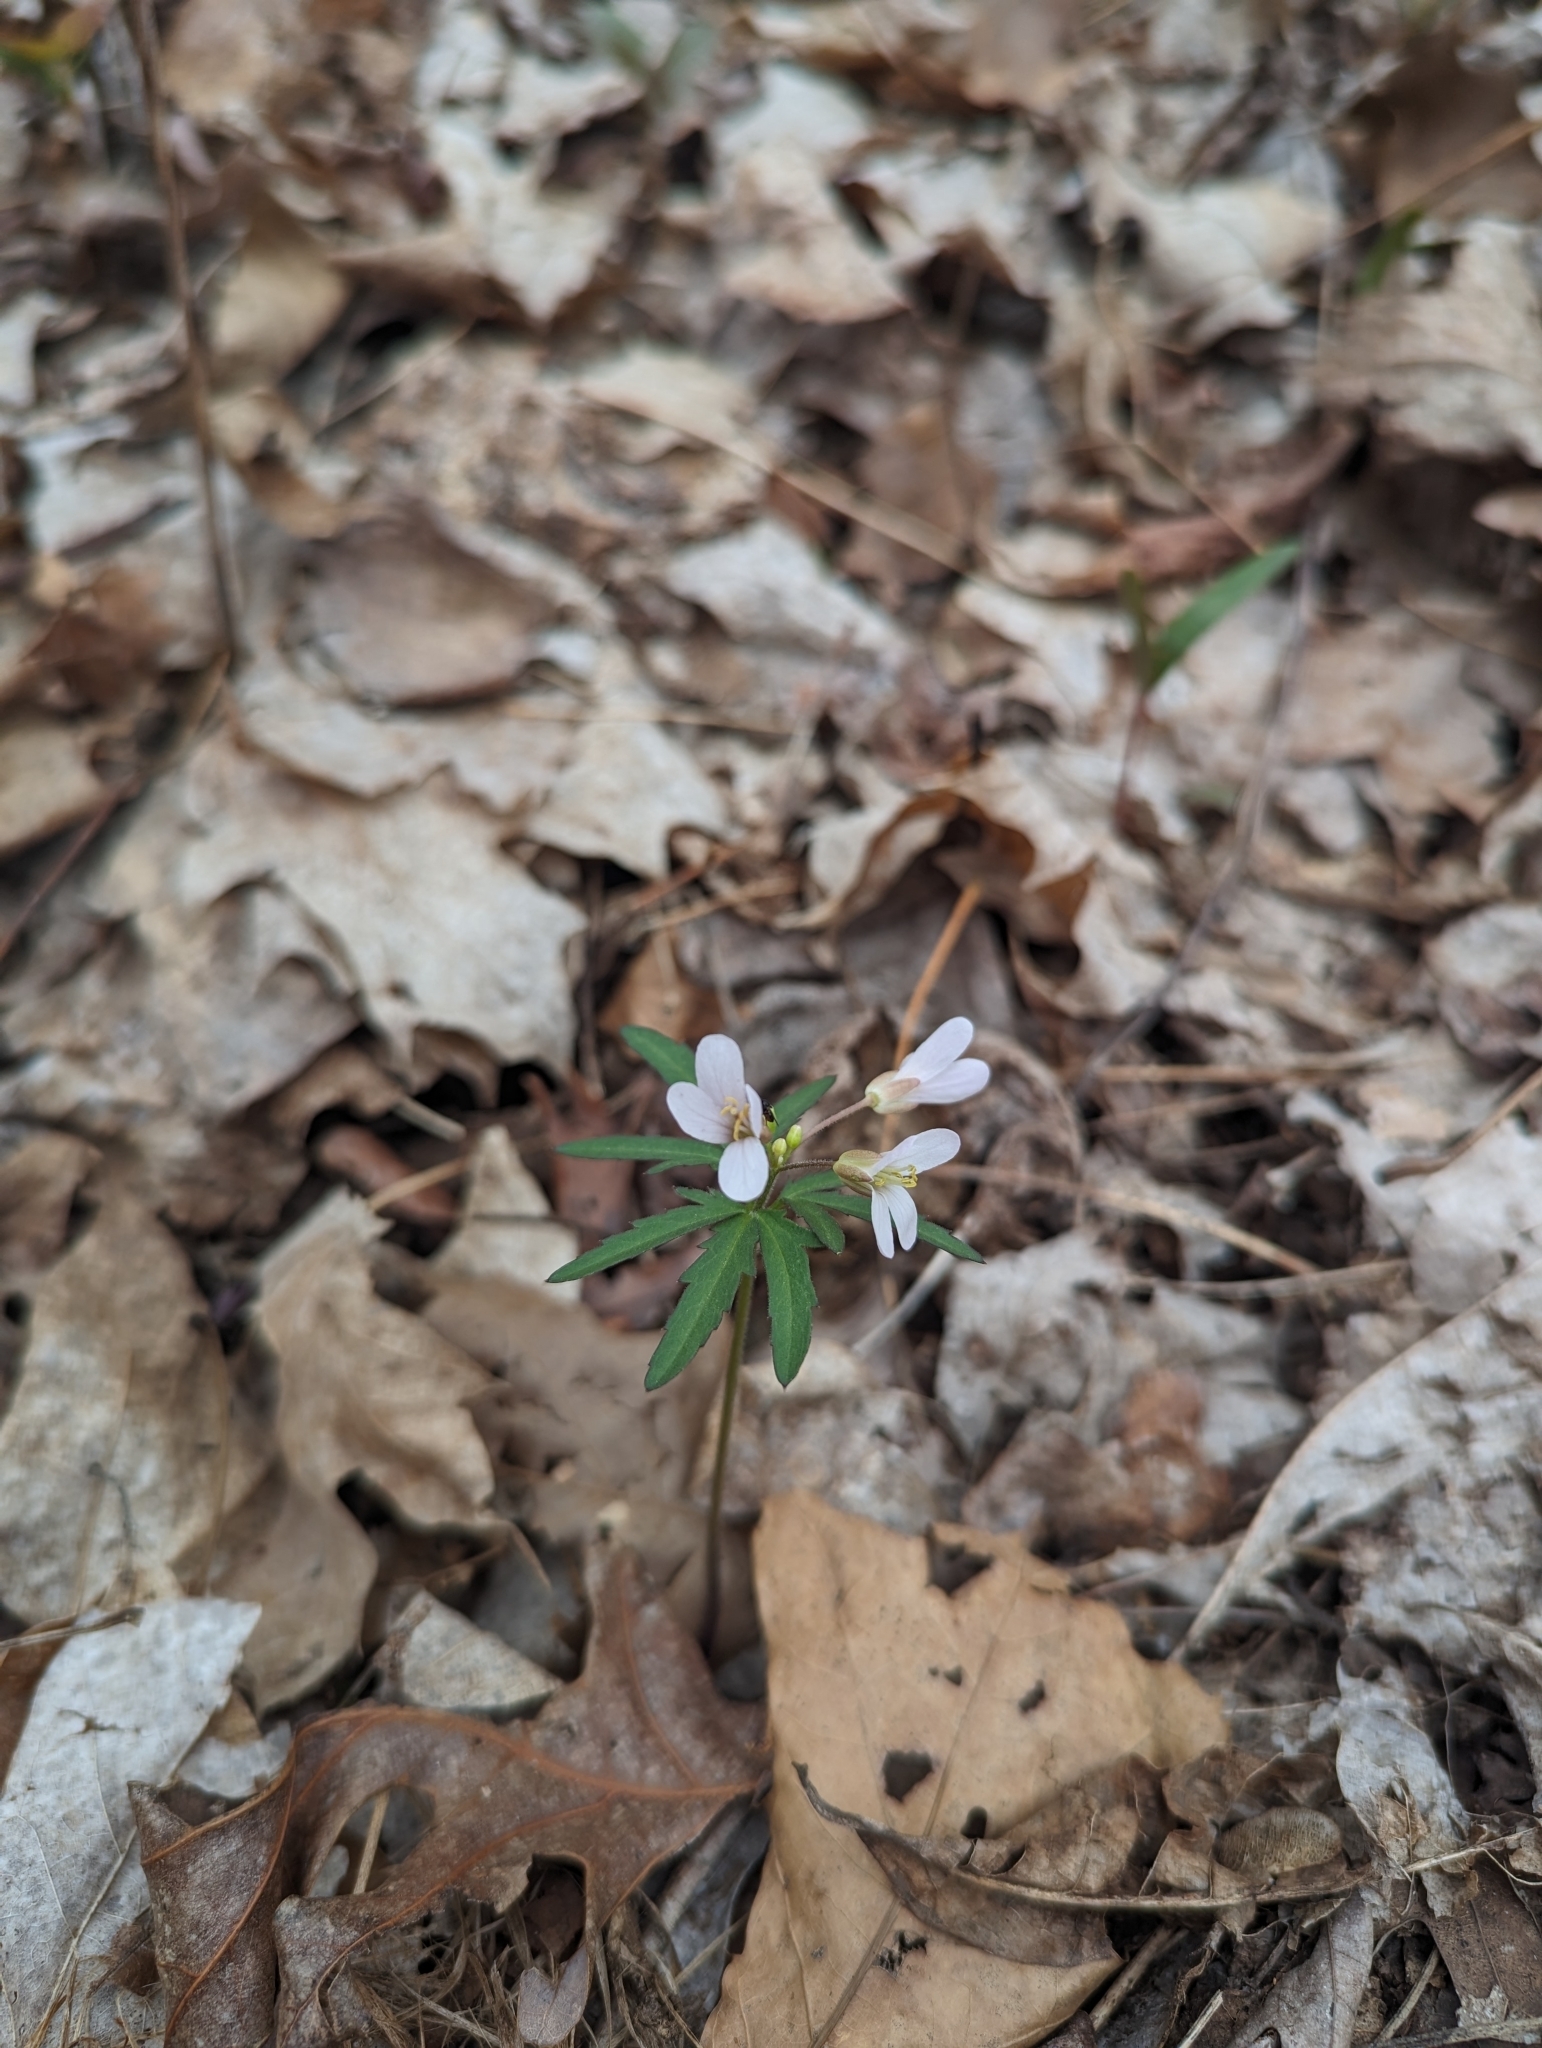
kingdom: Plantae
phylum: Tracheophyta
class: Magnoliopsida
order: Brassicales
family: Brassicaceae
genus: Cardamine
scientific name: Cardamine concatenata
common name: Cut-leaf toothcup
